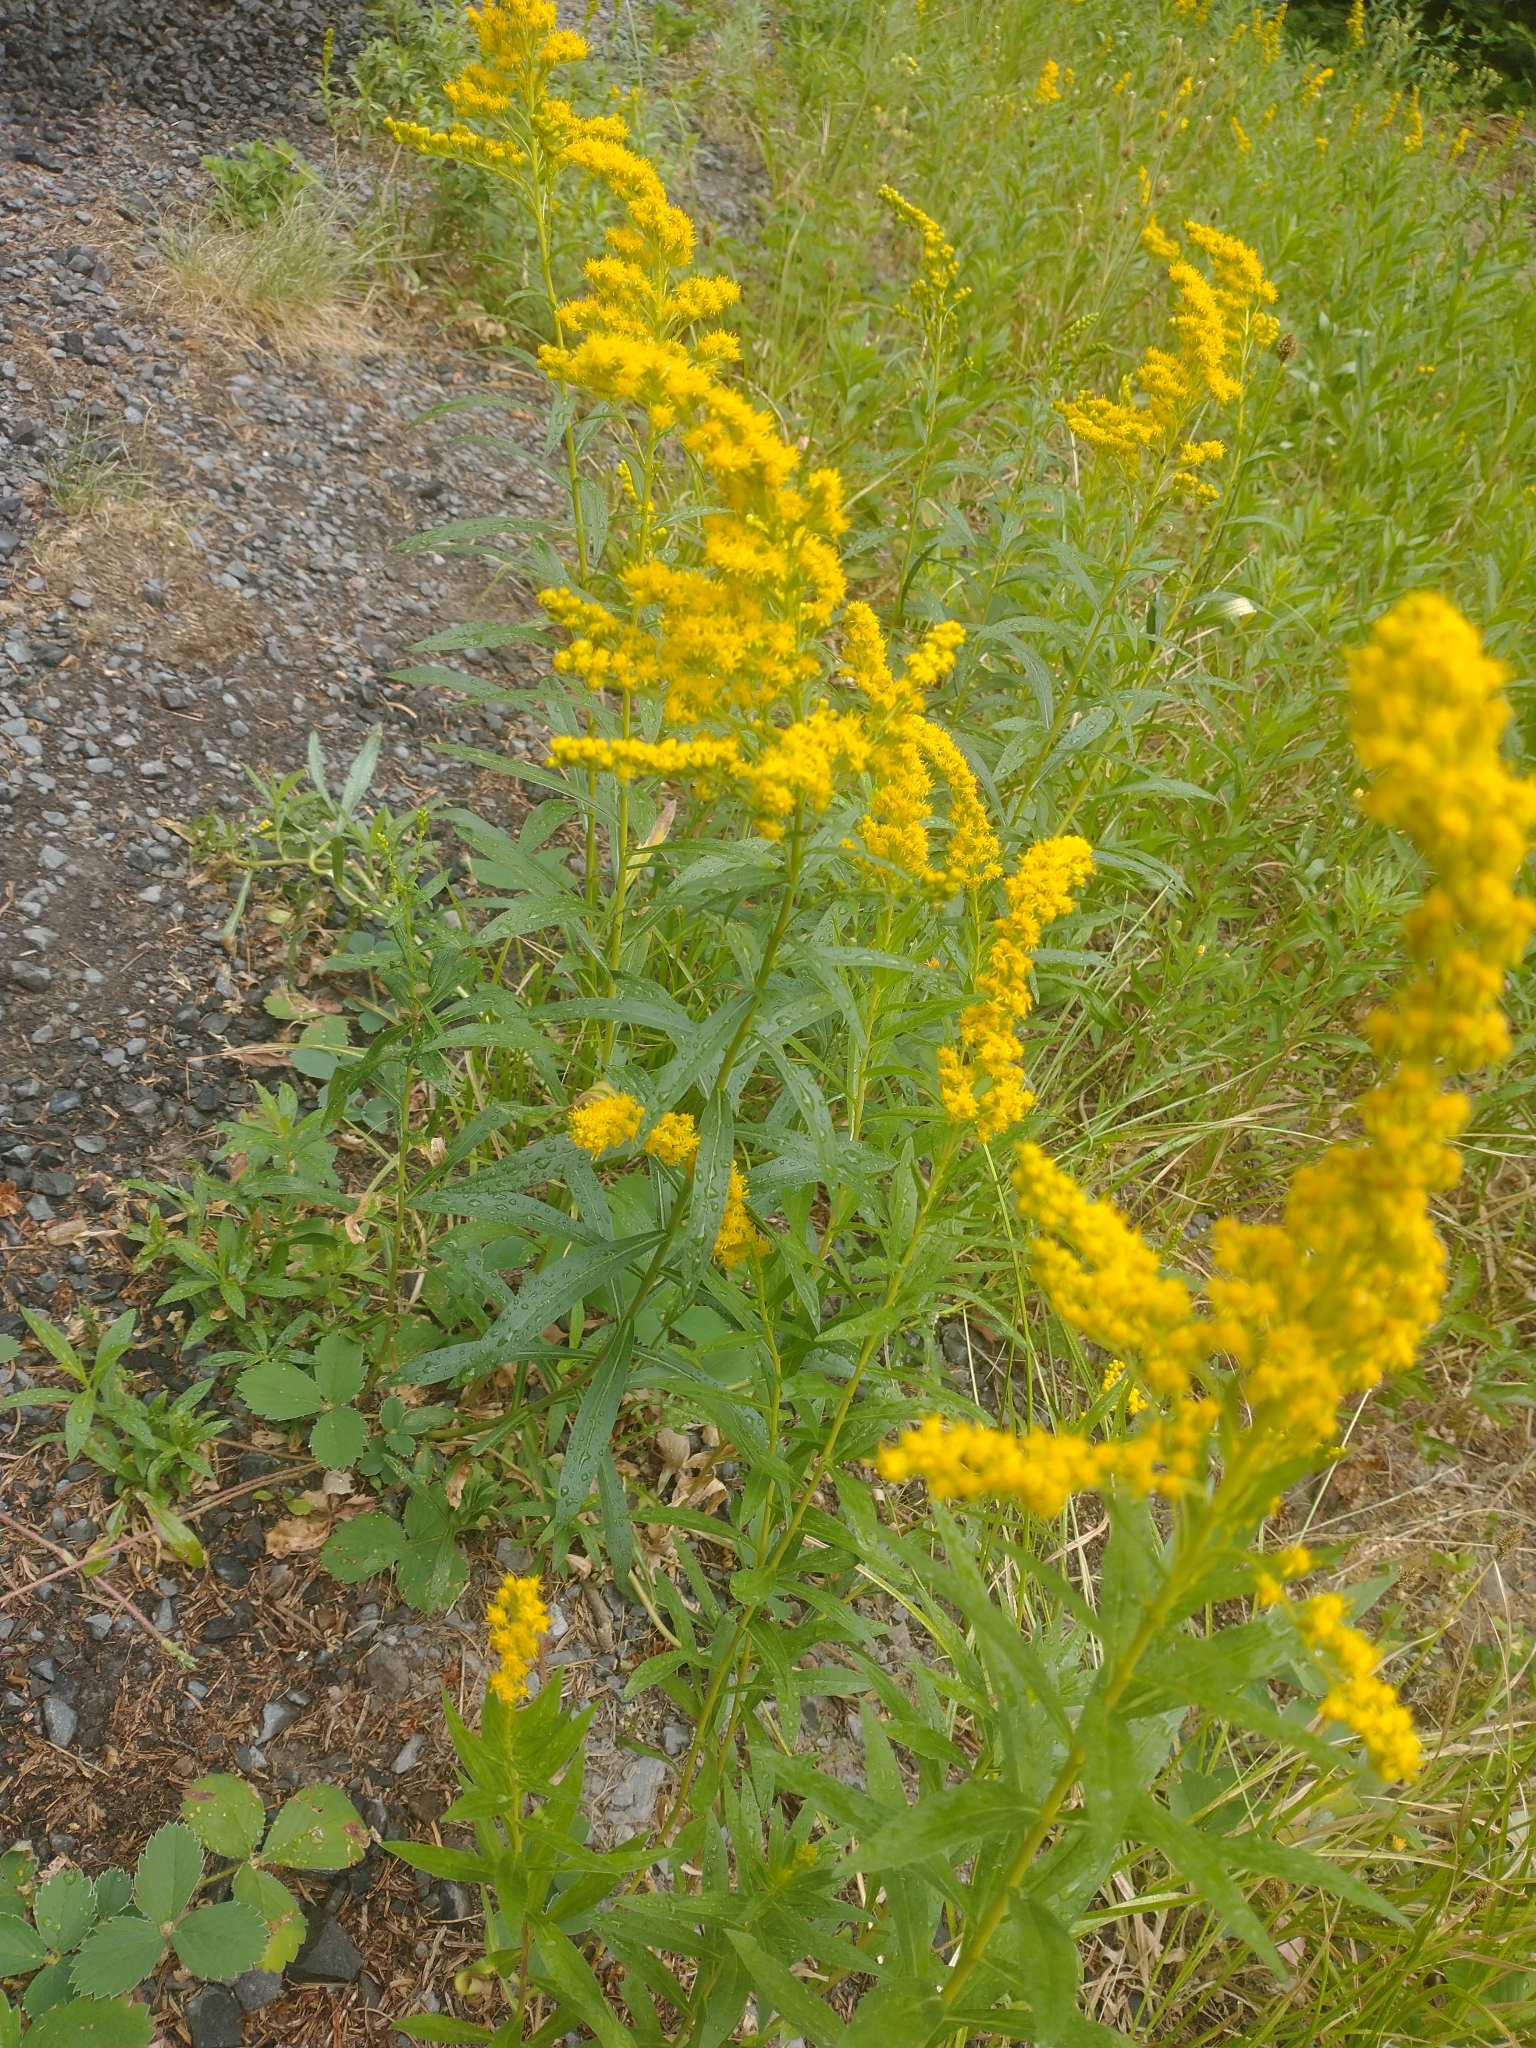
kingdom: Plantae
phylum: Tracheophyta
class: Magnoliopsida
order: Asterales
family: Asteraceae
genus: Solidago
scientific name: Solidago lepida
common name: Western canada goldenrod
